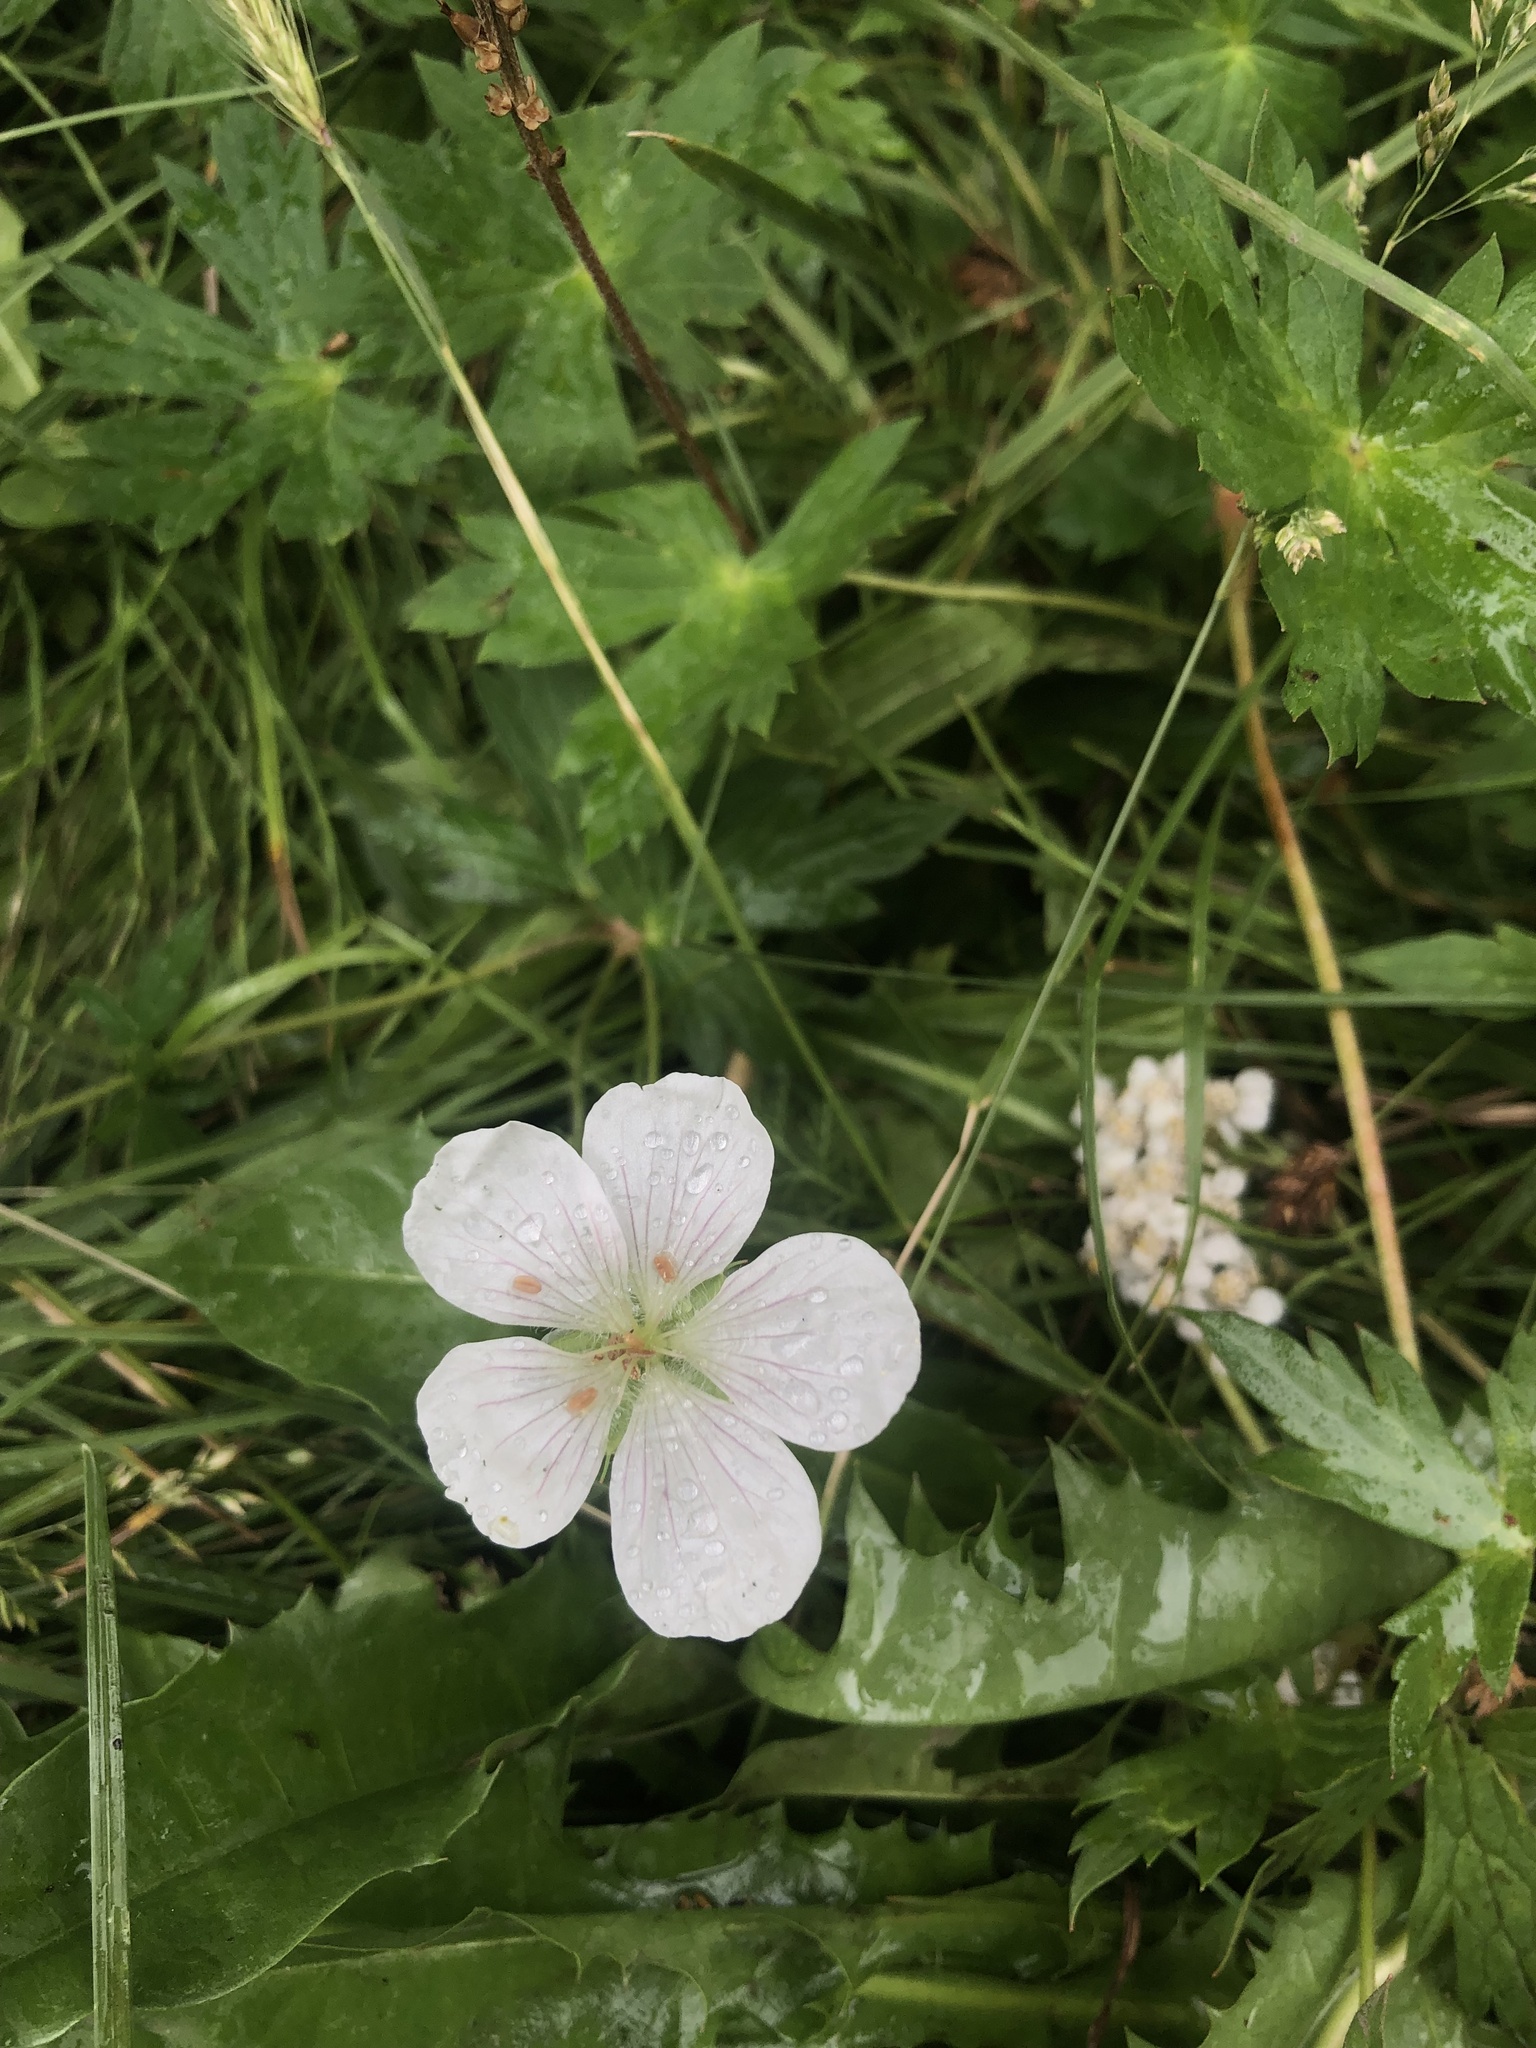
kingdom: Plantae
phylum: Tracheophyta
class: Magnoliopsida
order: Geraniales
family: Geraniaceae
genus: Geranium
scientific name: Geranium richardsonii
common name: Richardson's crane's-bill
